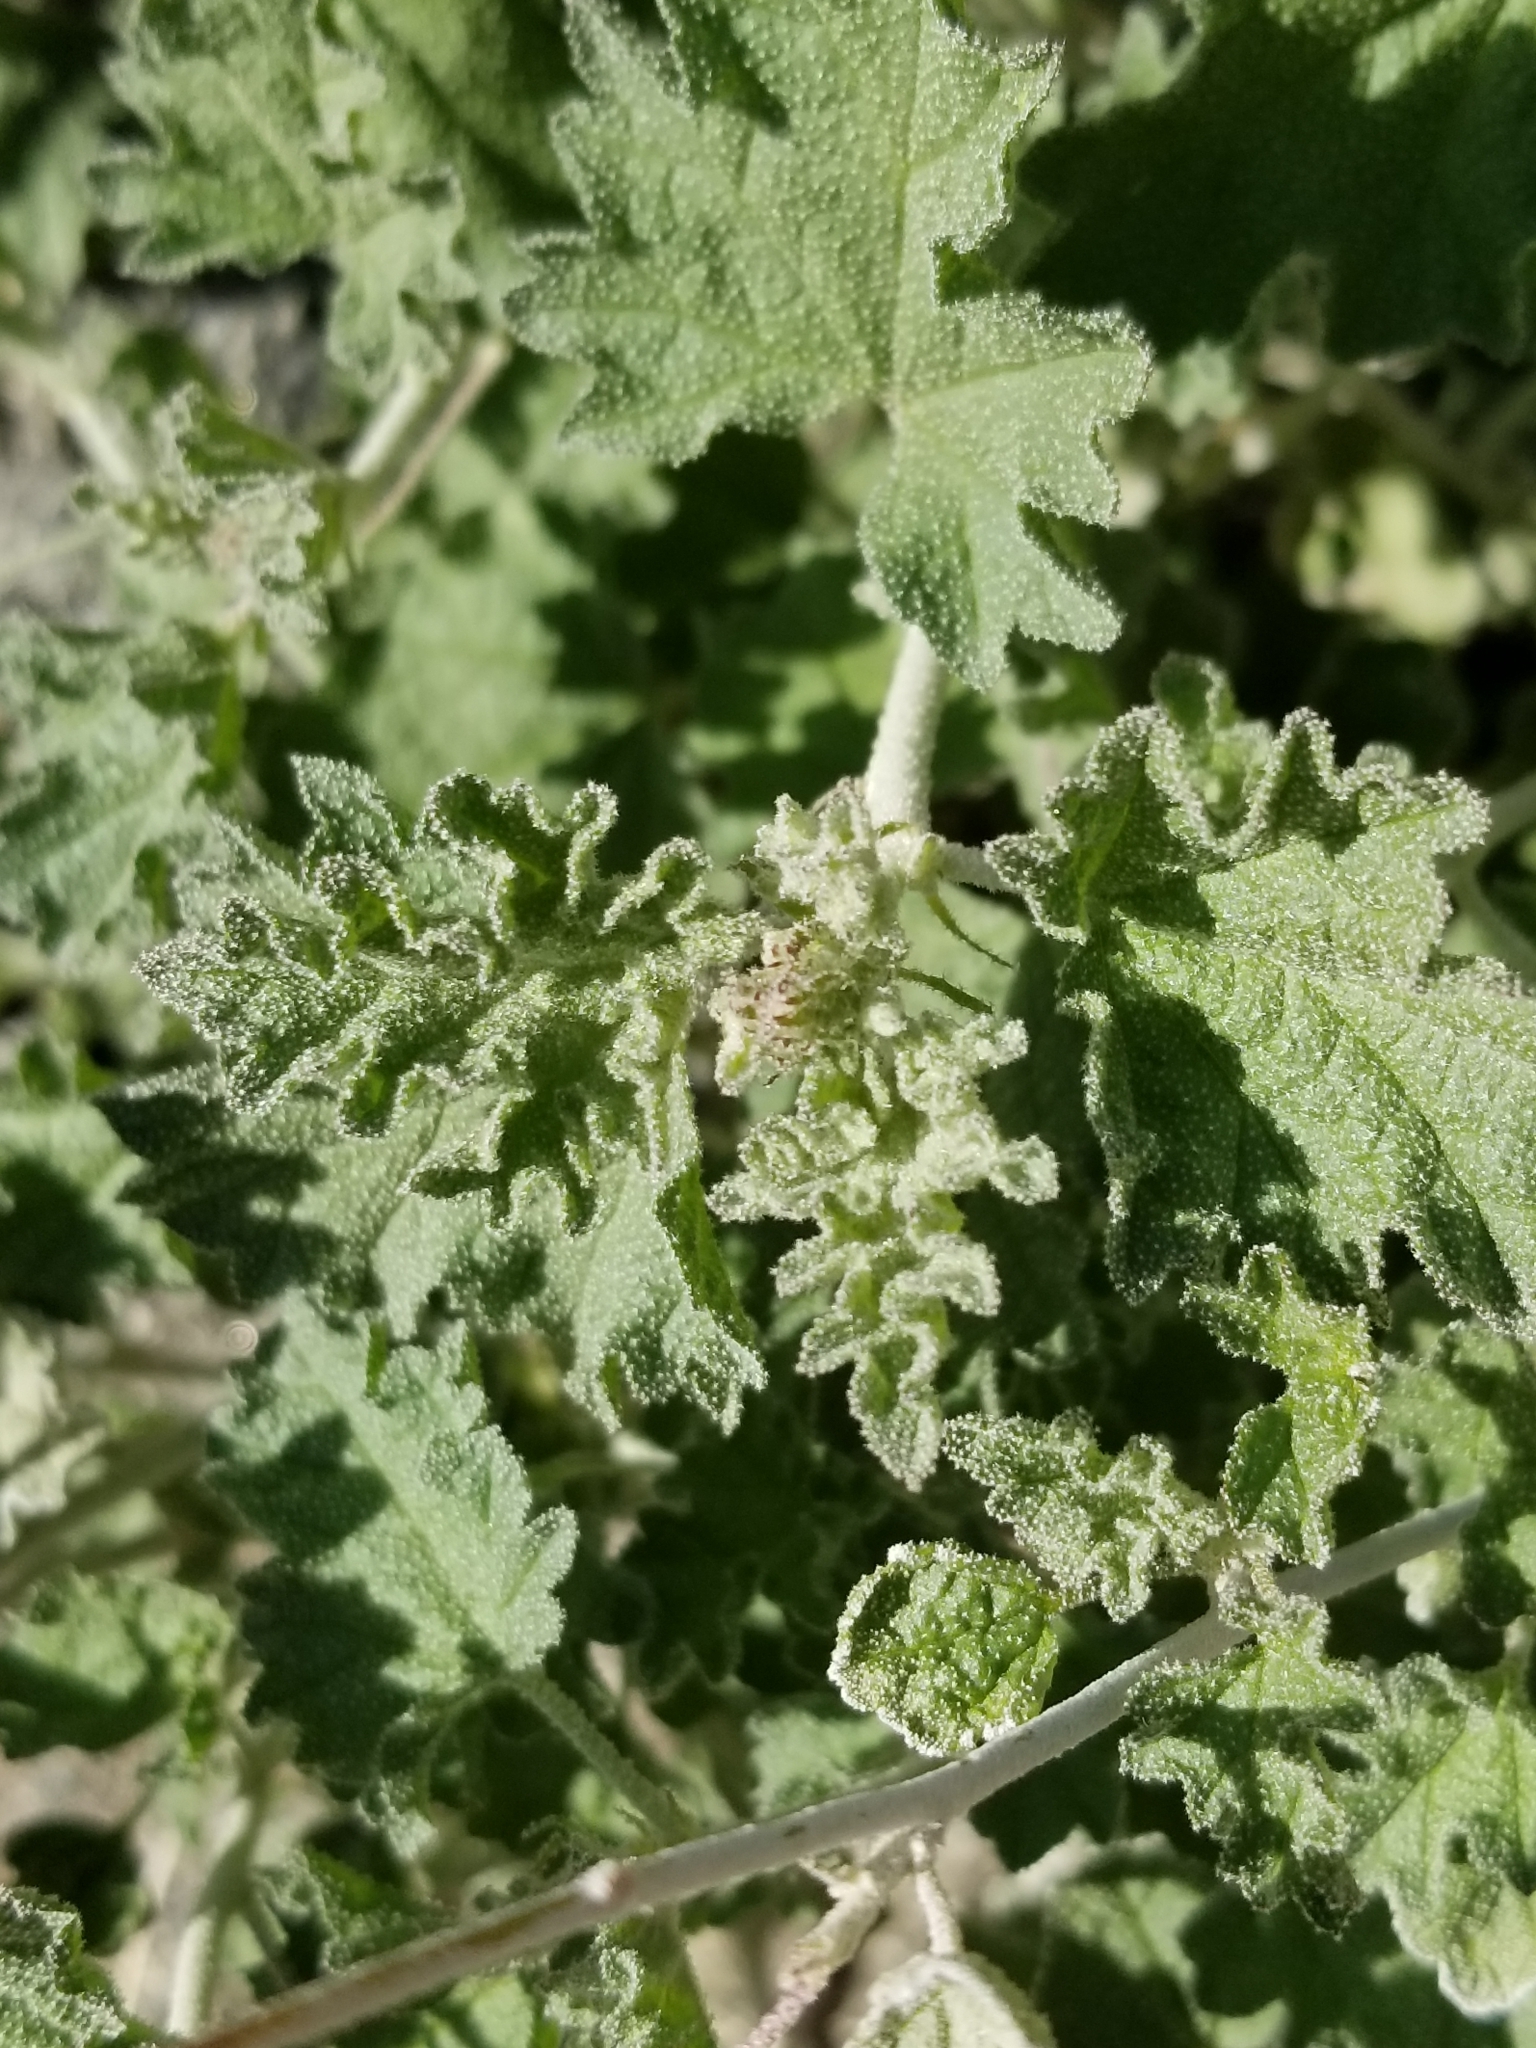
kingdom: Plantae
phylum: Tracheophyta
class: Magnoliopsida
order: Malvales
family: Malvaceae
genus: Sphaeralcea
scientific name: Sphaeralcea ambigua
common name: Apricot globe-mallow
